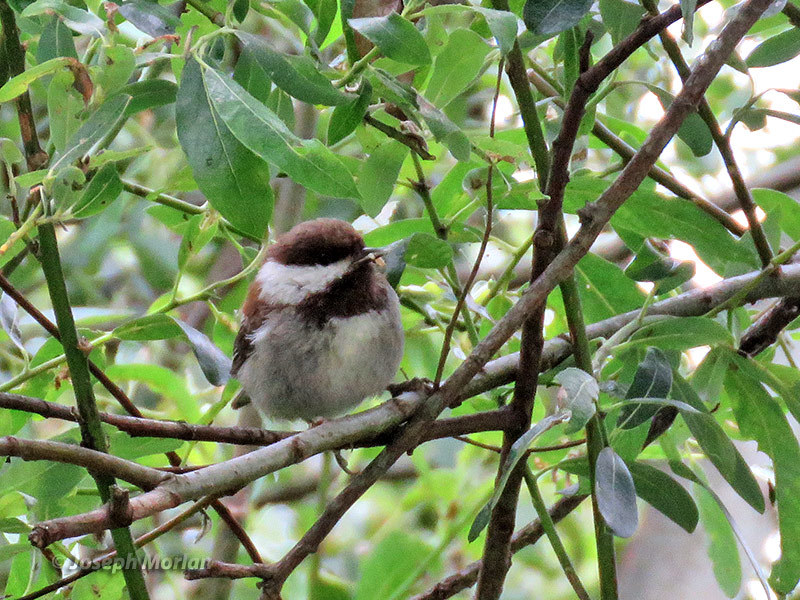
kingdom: Animalia
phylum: Chordata
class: Aves
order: Passeriformes
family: Paridae
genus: Poecile
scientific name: Poecile rufescens
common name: Chestnut-backed chickadee
